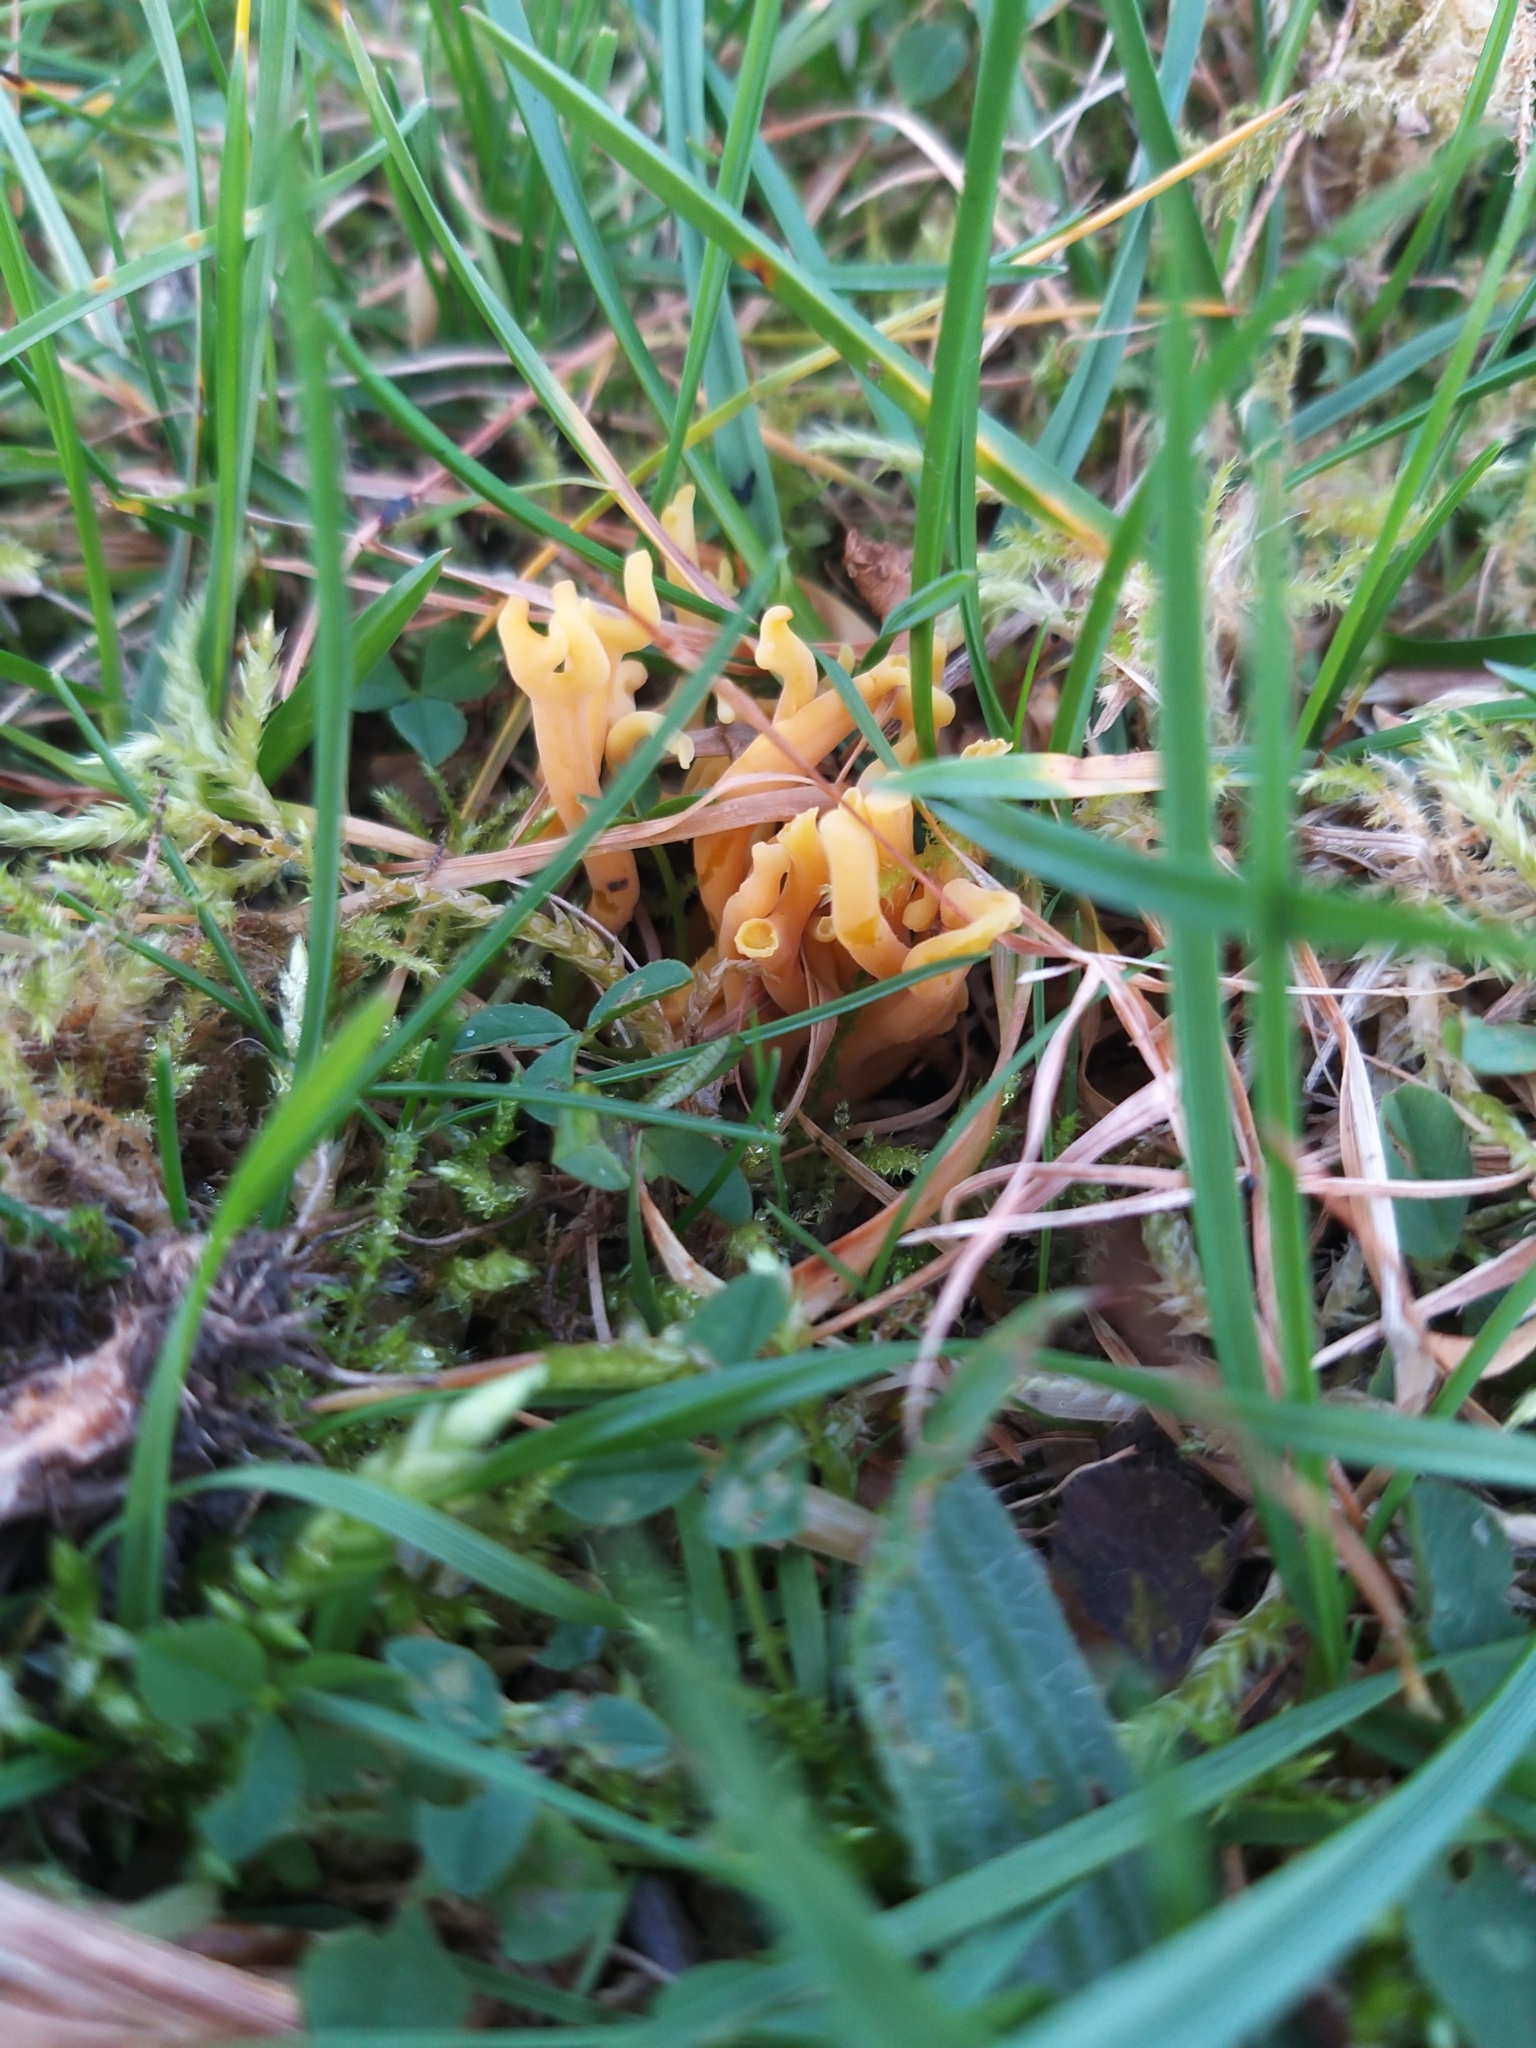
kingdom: Fungi
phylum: Basidiomycota
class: Agaricomycetes
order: Agaricales
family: Clavariaceae
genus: Clavulinopsis
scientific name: Clavulinopsis corniculata
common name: Meadow coral
